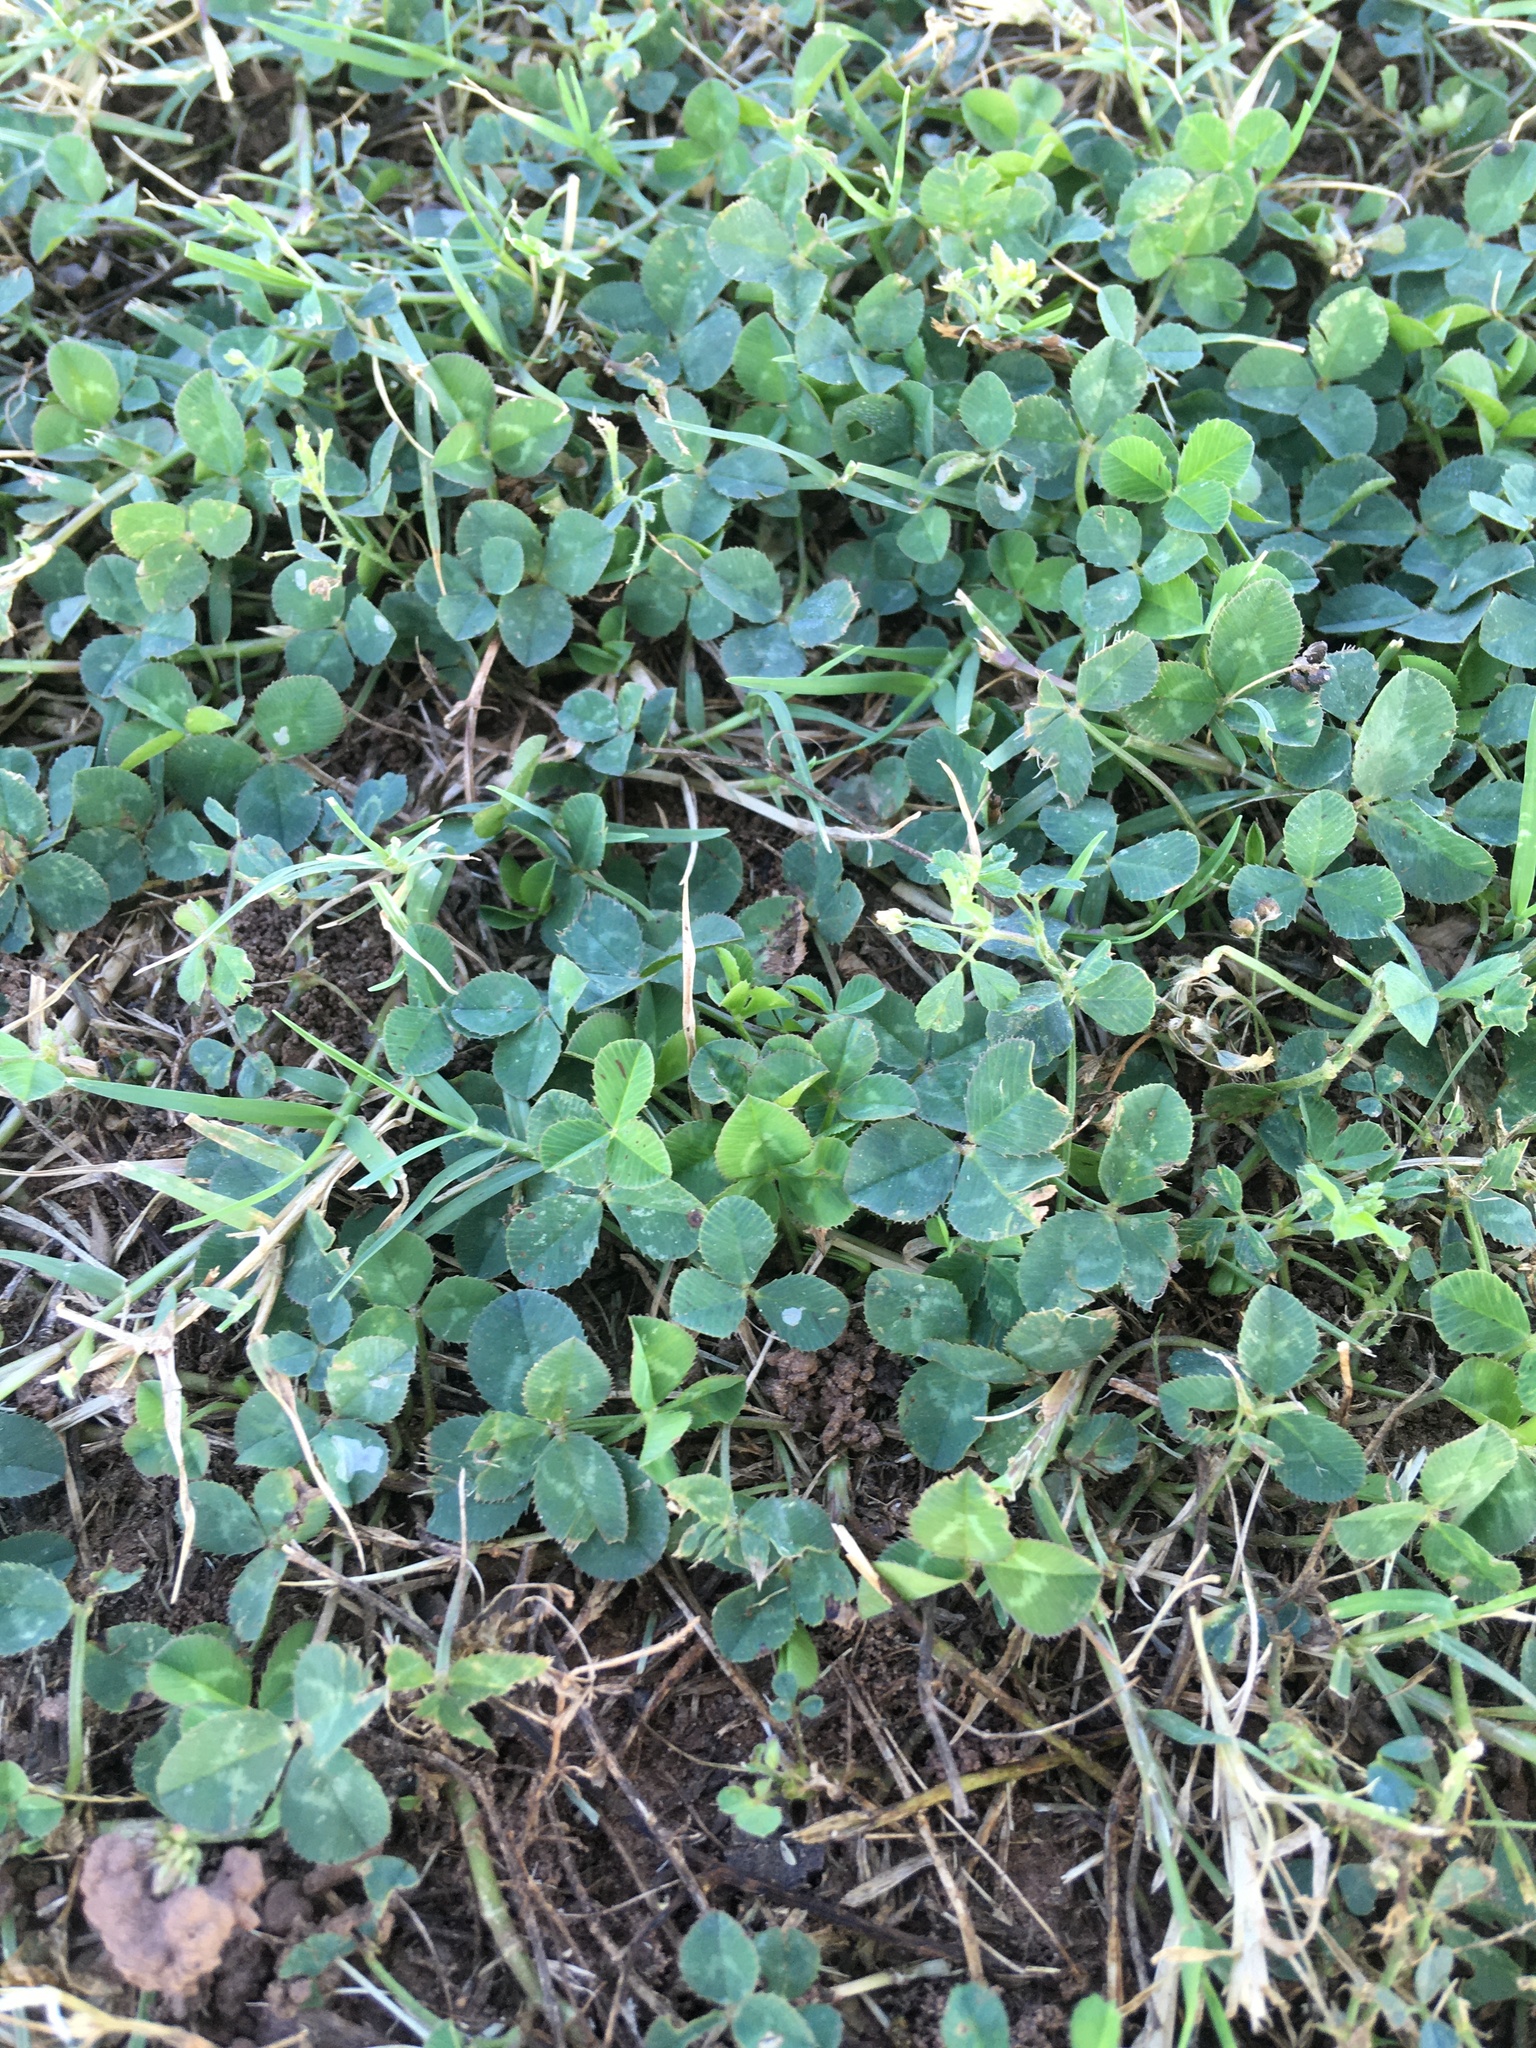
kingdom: Plantae
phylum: Tracheophyta
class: Magnoliopsida
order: Fabales
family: Fabaceae
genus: Trifolium
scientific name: Trifolium repens
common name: White clover
